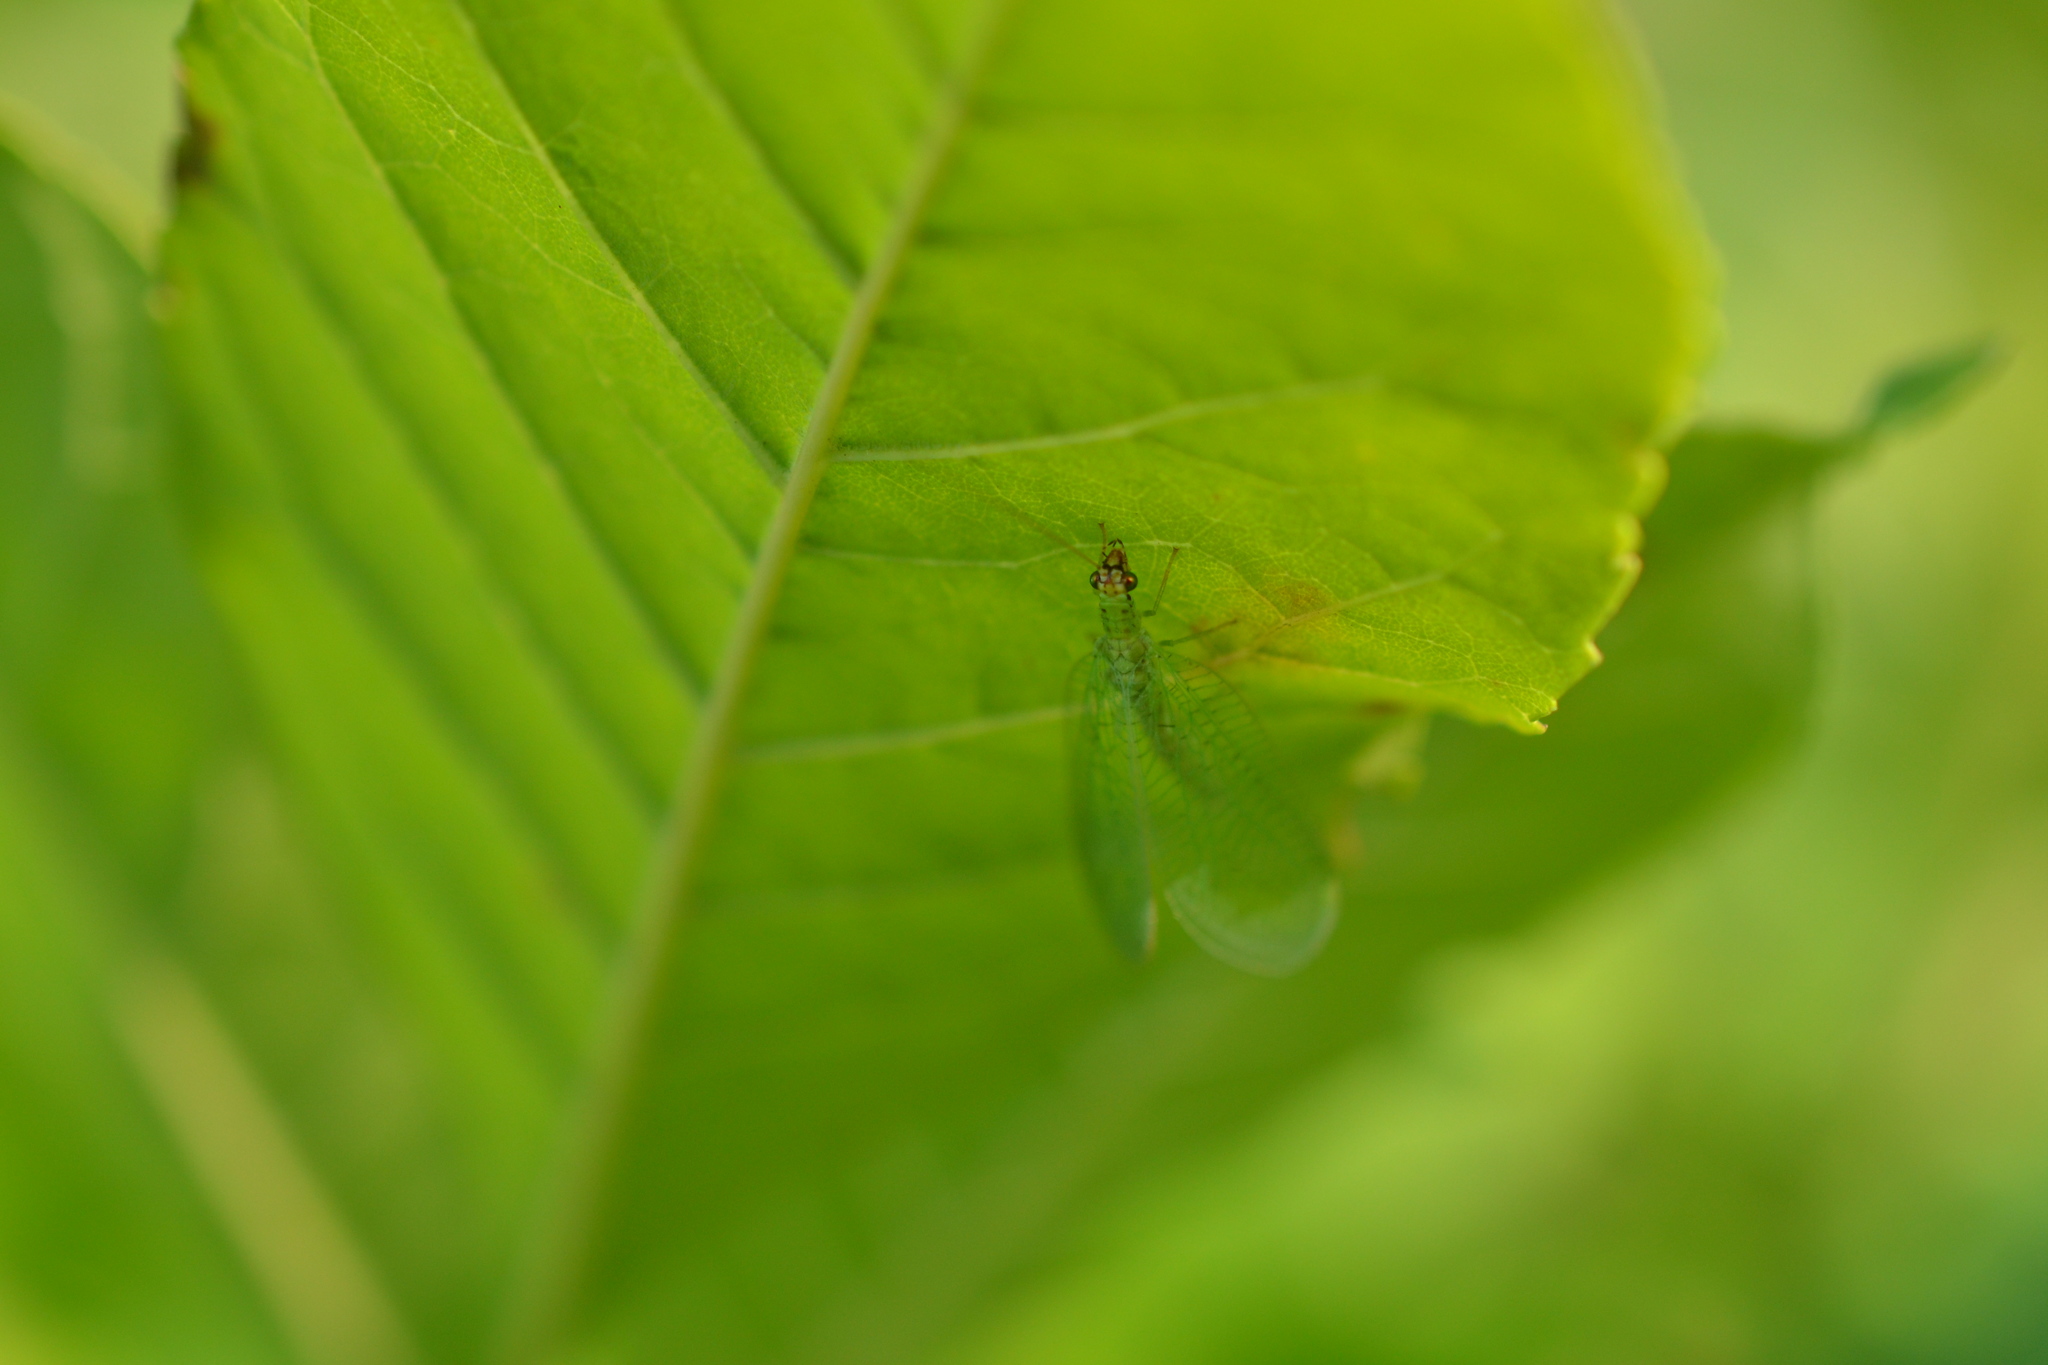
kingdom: Animalia
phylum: Arthropoda
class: Insecta
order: Neuroptera
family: Chrysopidae
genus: Chrysopa
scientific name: Chrysopa oculata
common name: Golden-eyed lacewing
